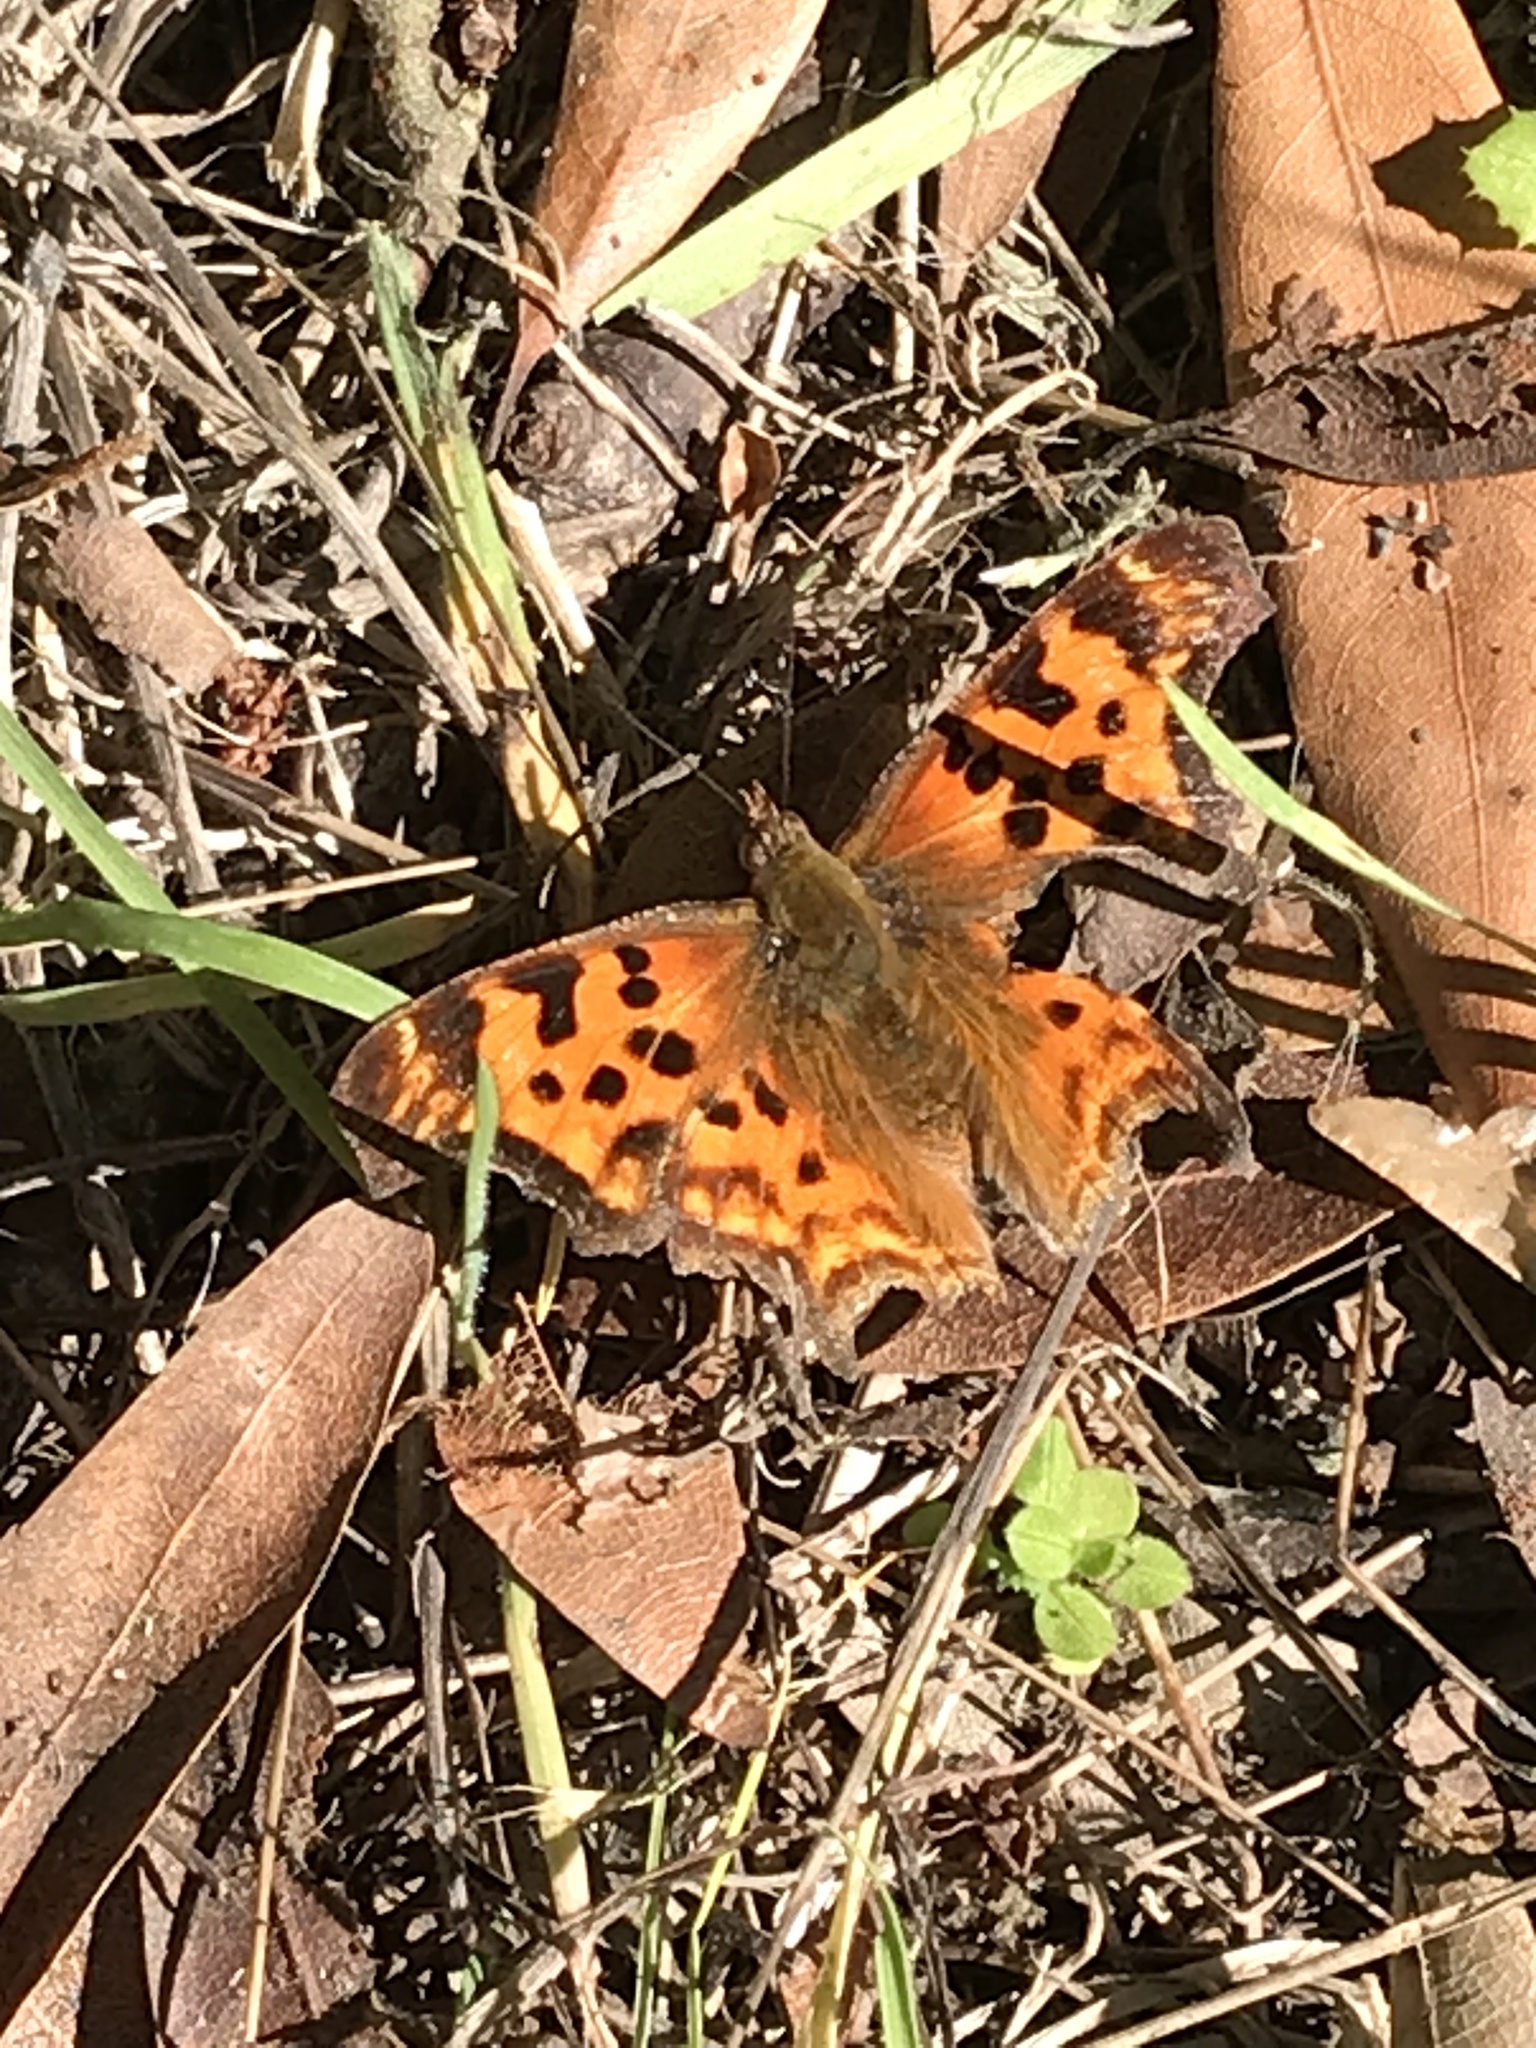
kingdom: Animalia
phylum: Arthropoda
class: Insecta
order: Lepidoptera
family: Nymphalidae
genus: Polygonia
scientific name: Polygonia satyrus
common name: Satyr angle wing
